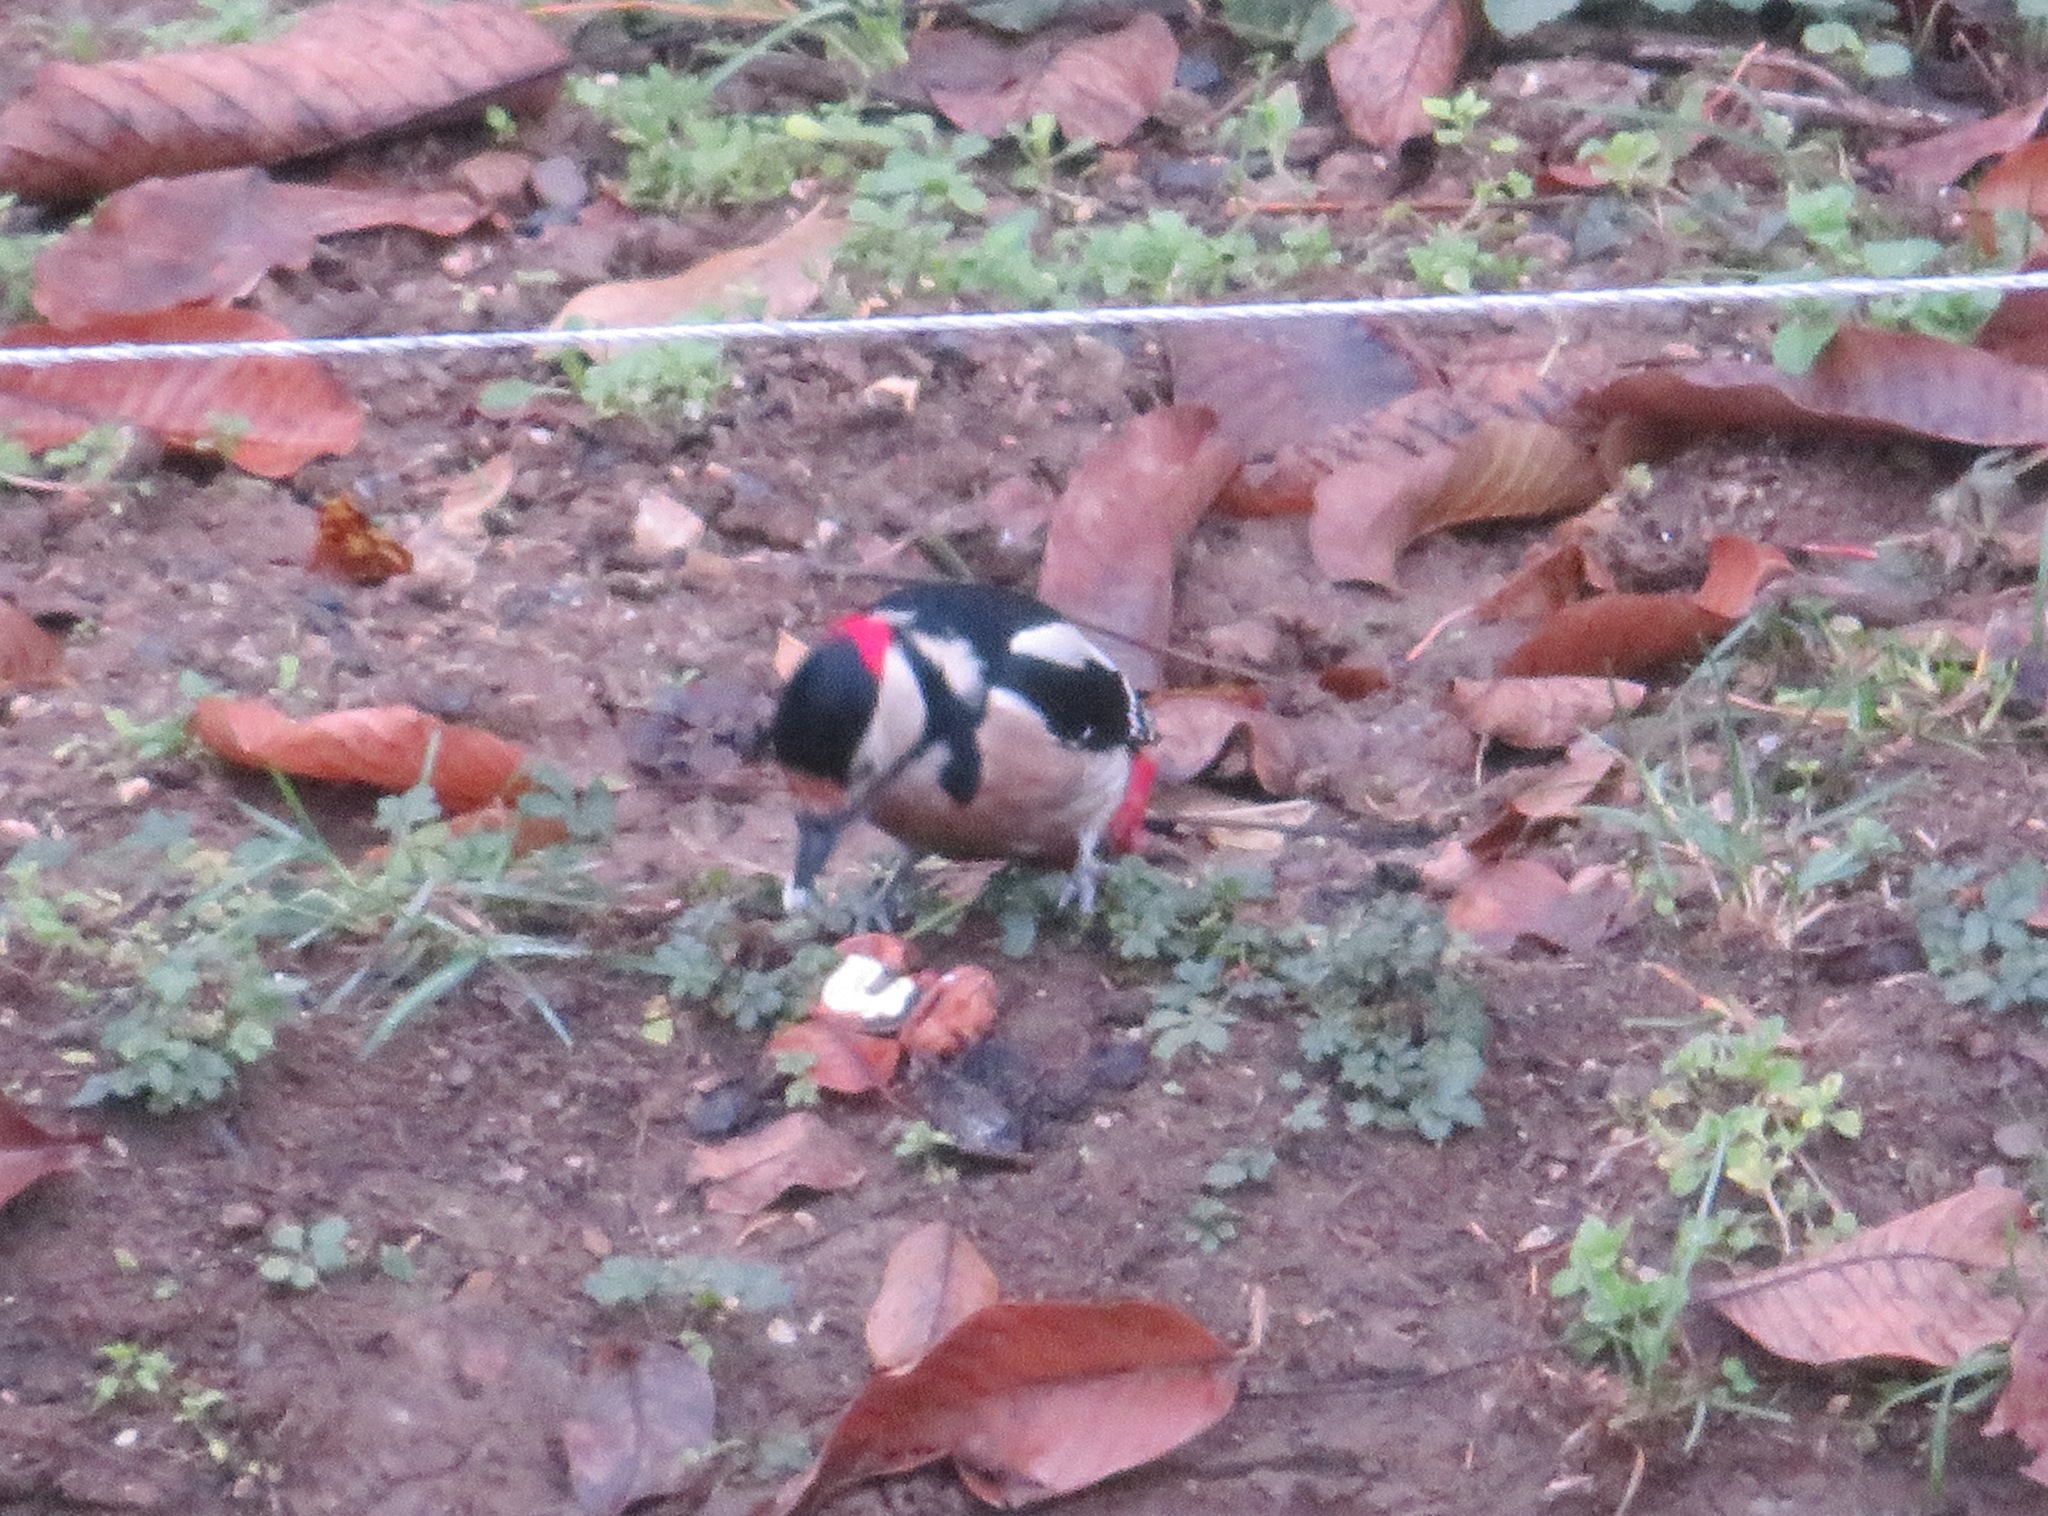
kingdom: Animalia
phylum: Chordata
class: Aves
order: Piciformes
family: Picidae
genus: Dendrocopos
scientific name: Dendrocopos major
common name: Great spotted woodpecker
